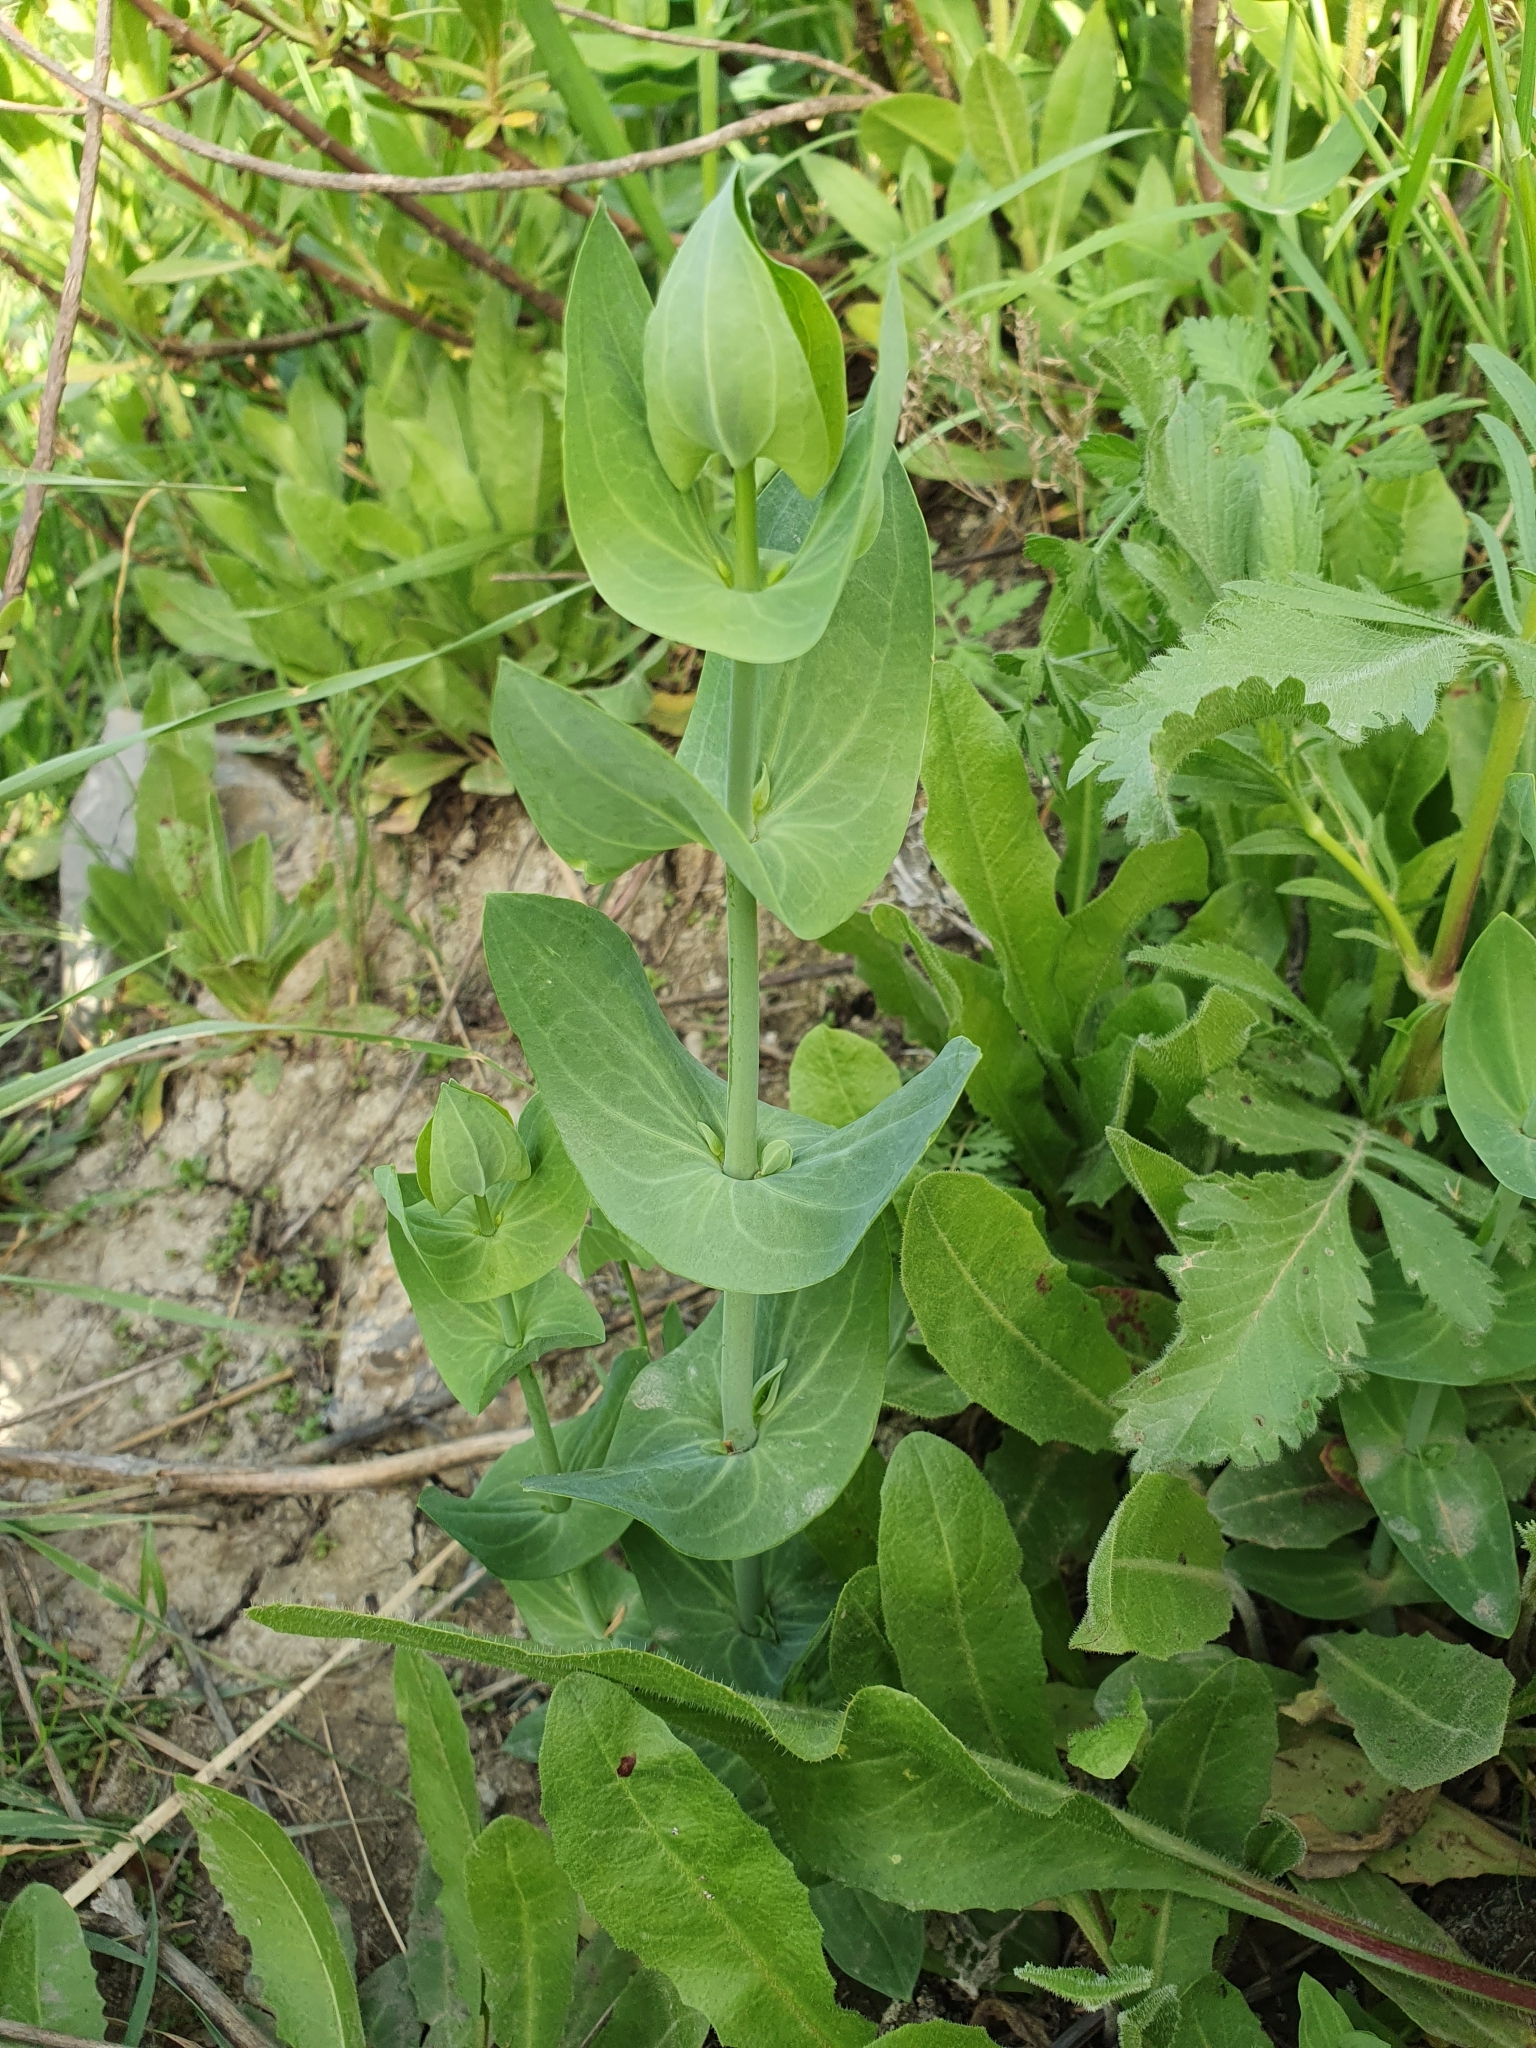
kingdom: Plantae
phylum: Tracheophyta
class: Magnoliopsida
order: Gentianales
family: Gentianaceae
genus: Blackstonia
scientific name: Blackstonia grandiflora
